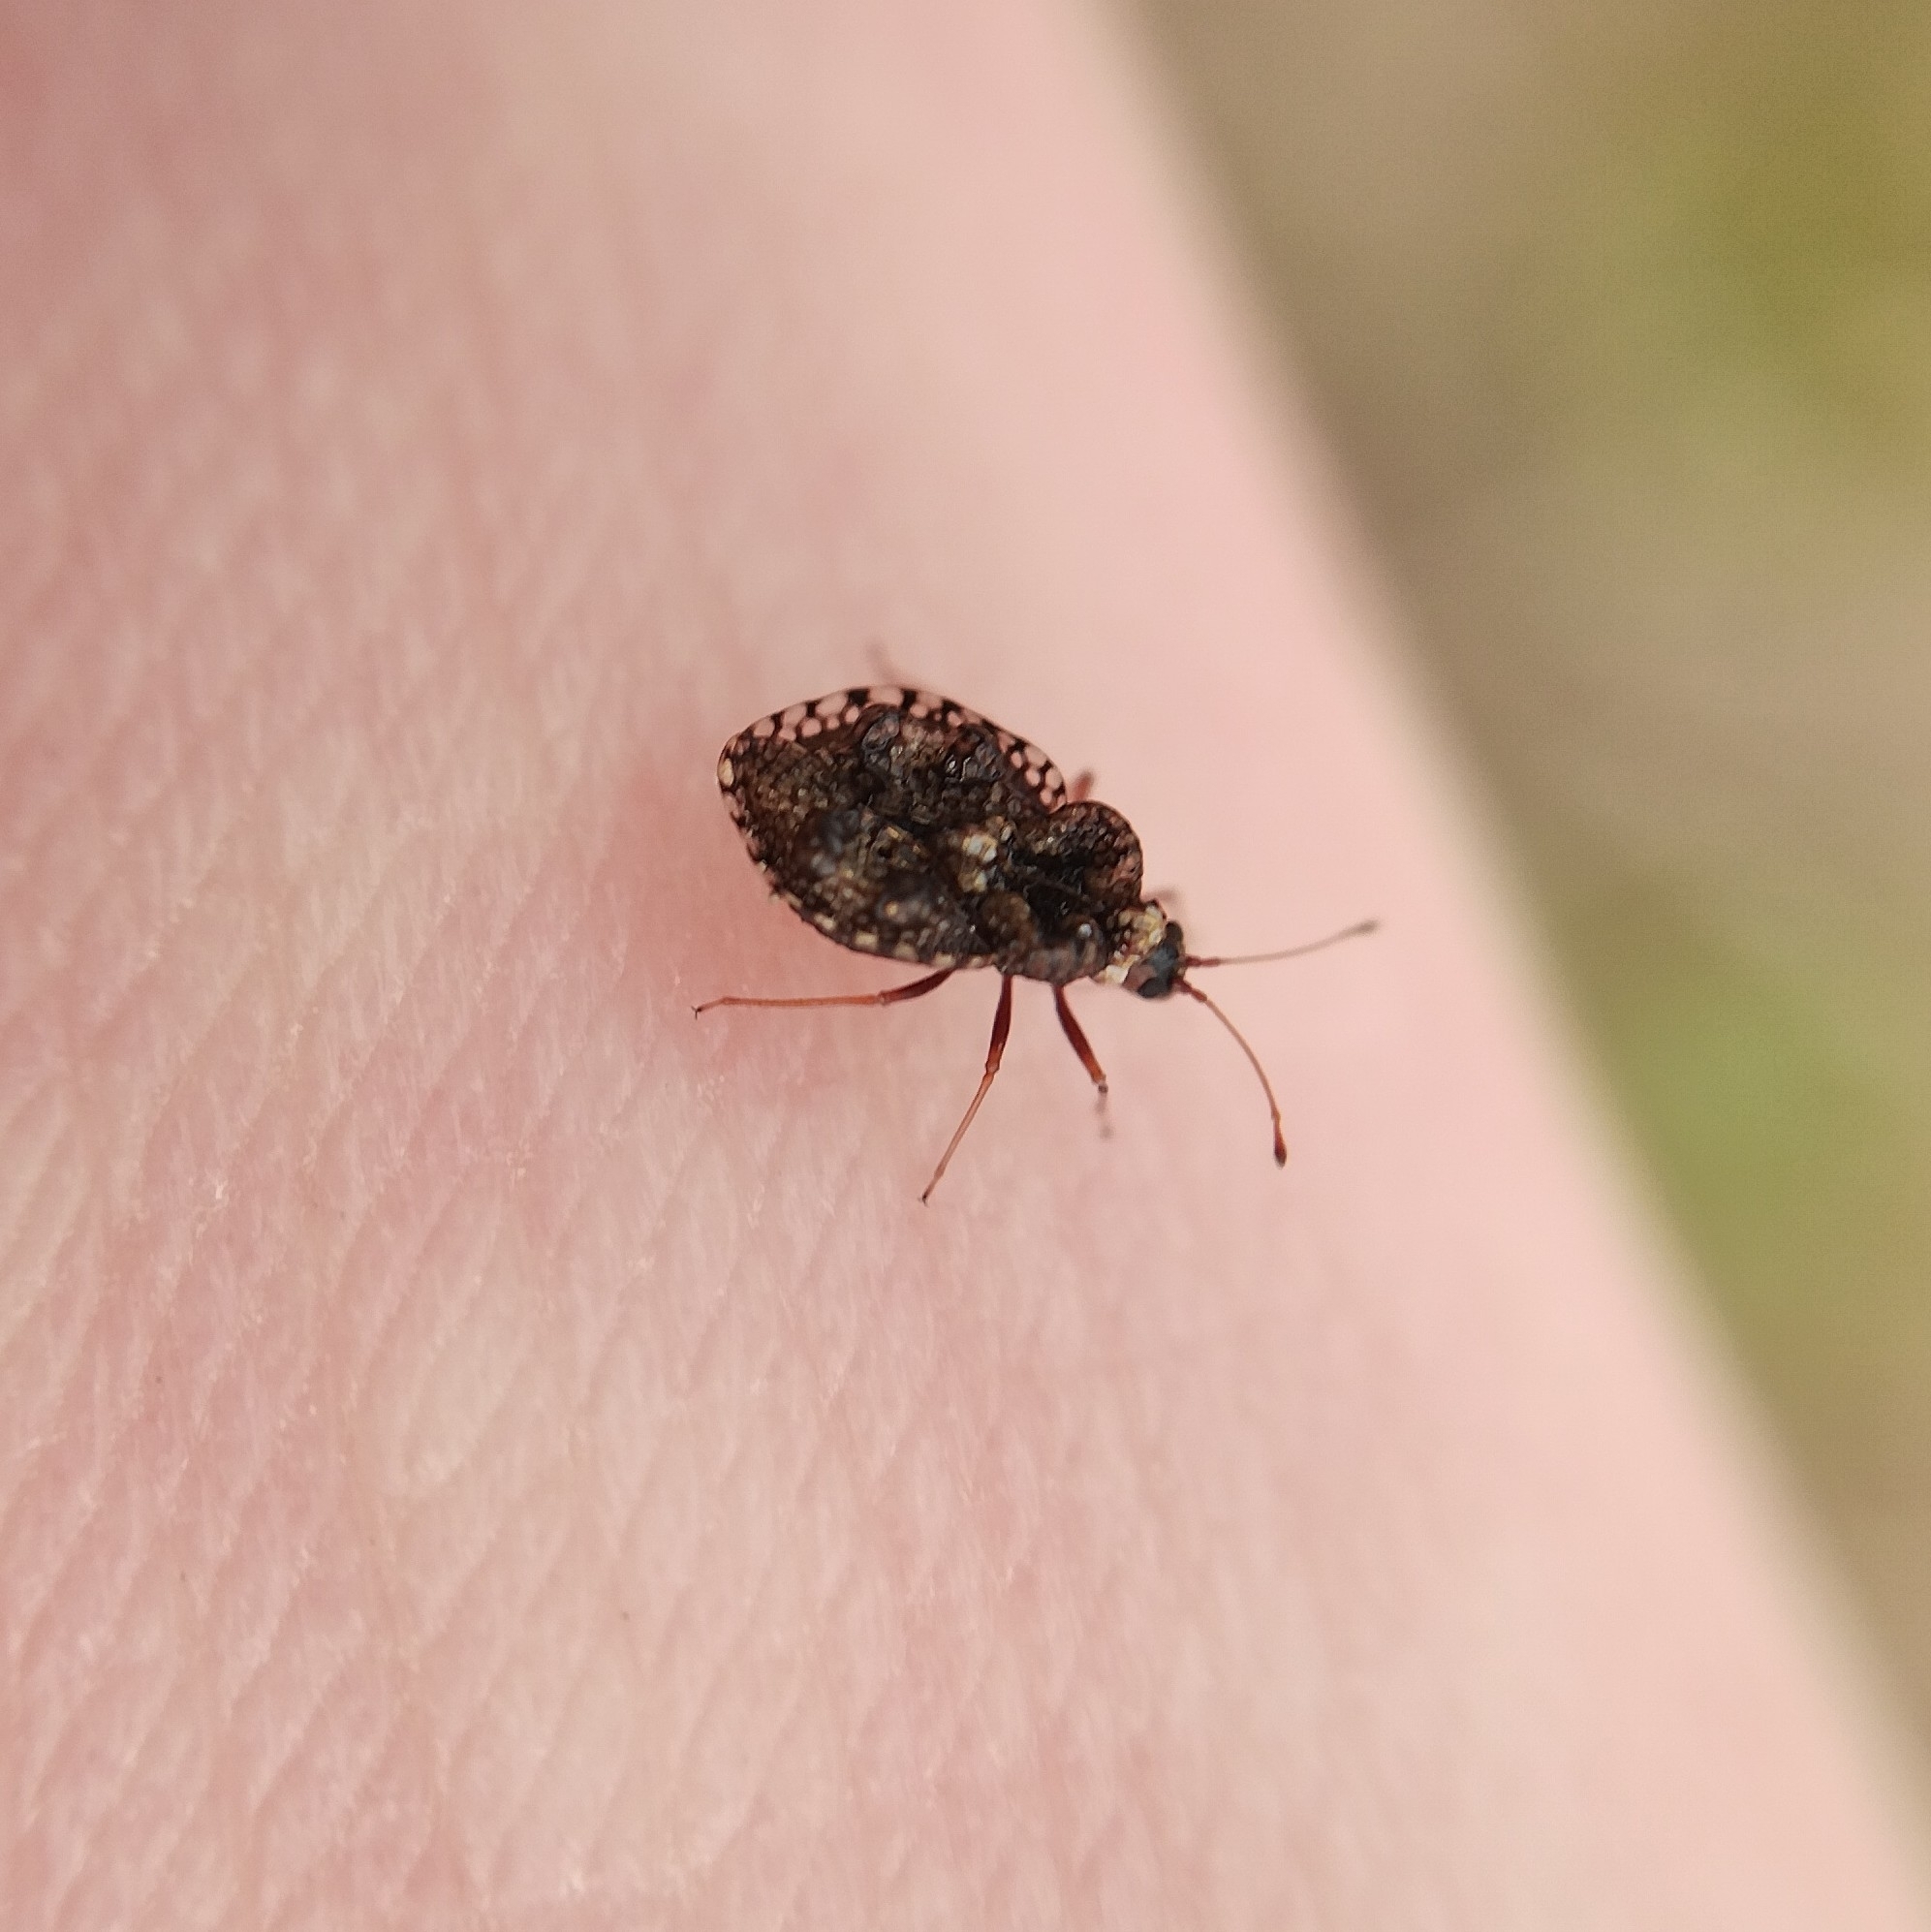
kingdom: Animalia
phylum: Arthropoda
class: Insecta
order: Hemiptera
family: Tingidae
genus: Dictyla
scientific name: Dictyla rotundata
